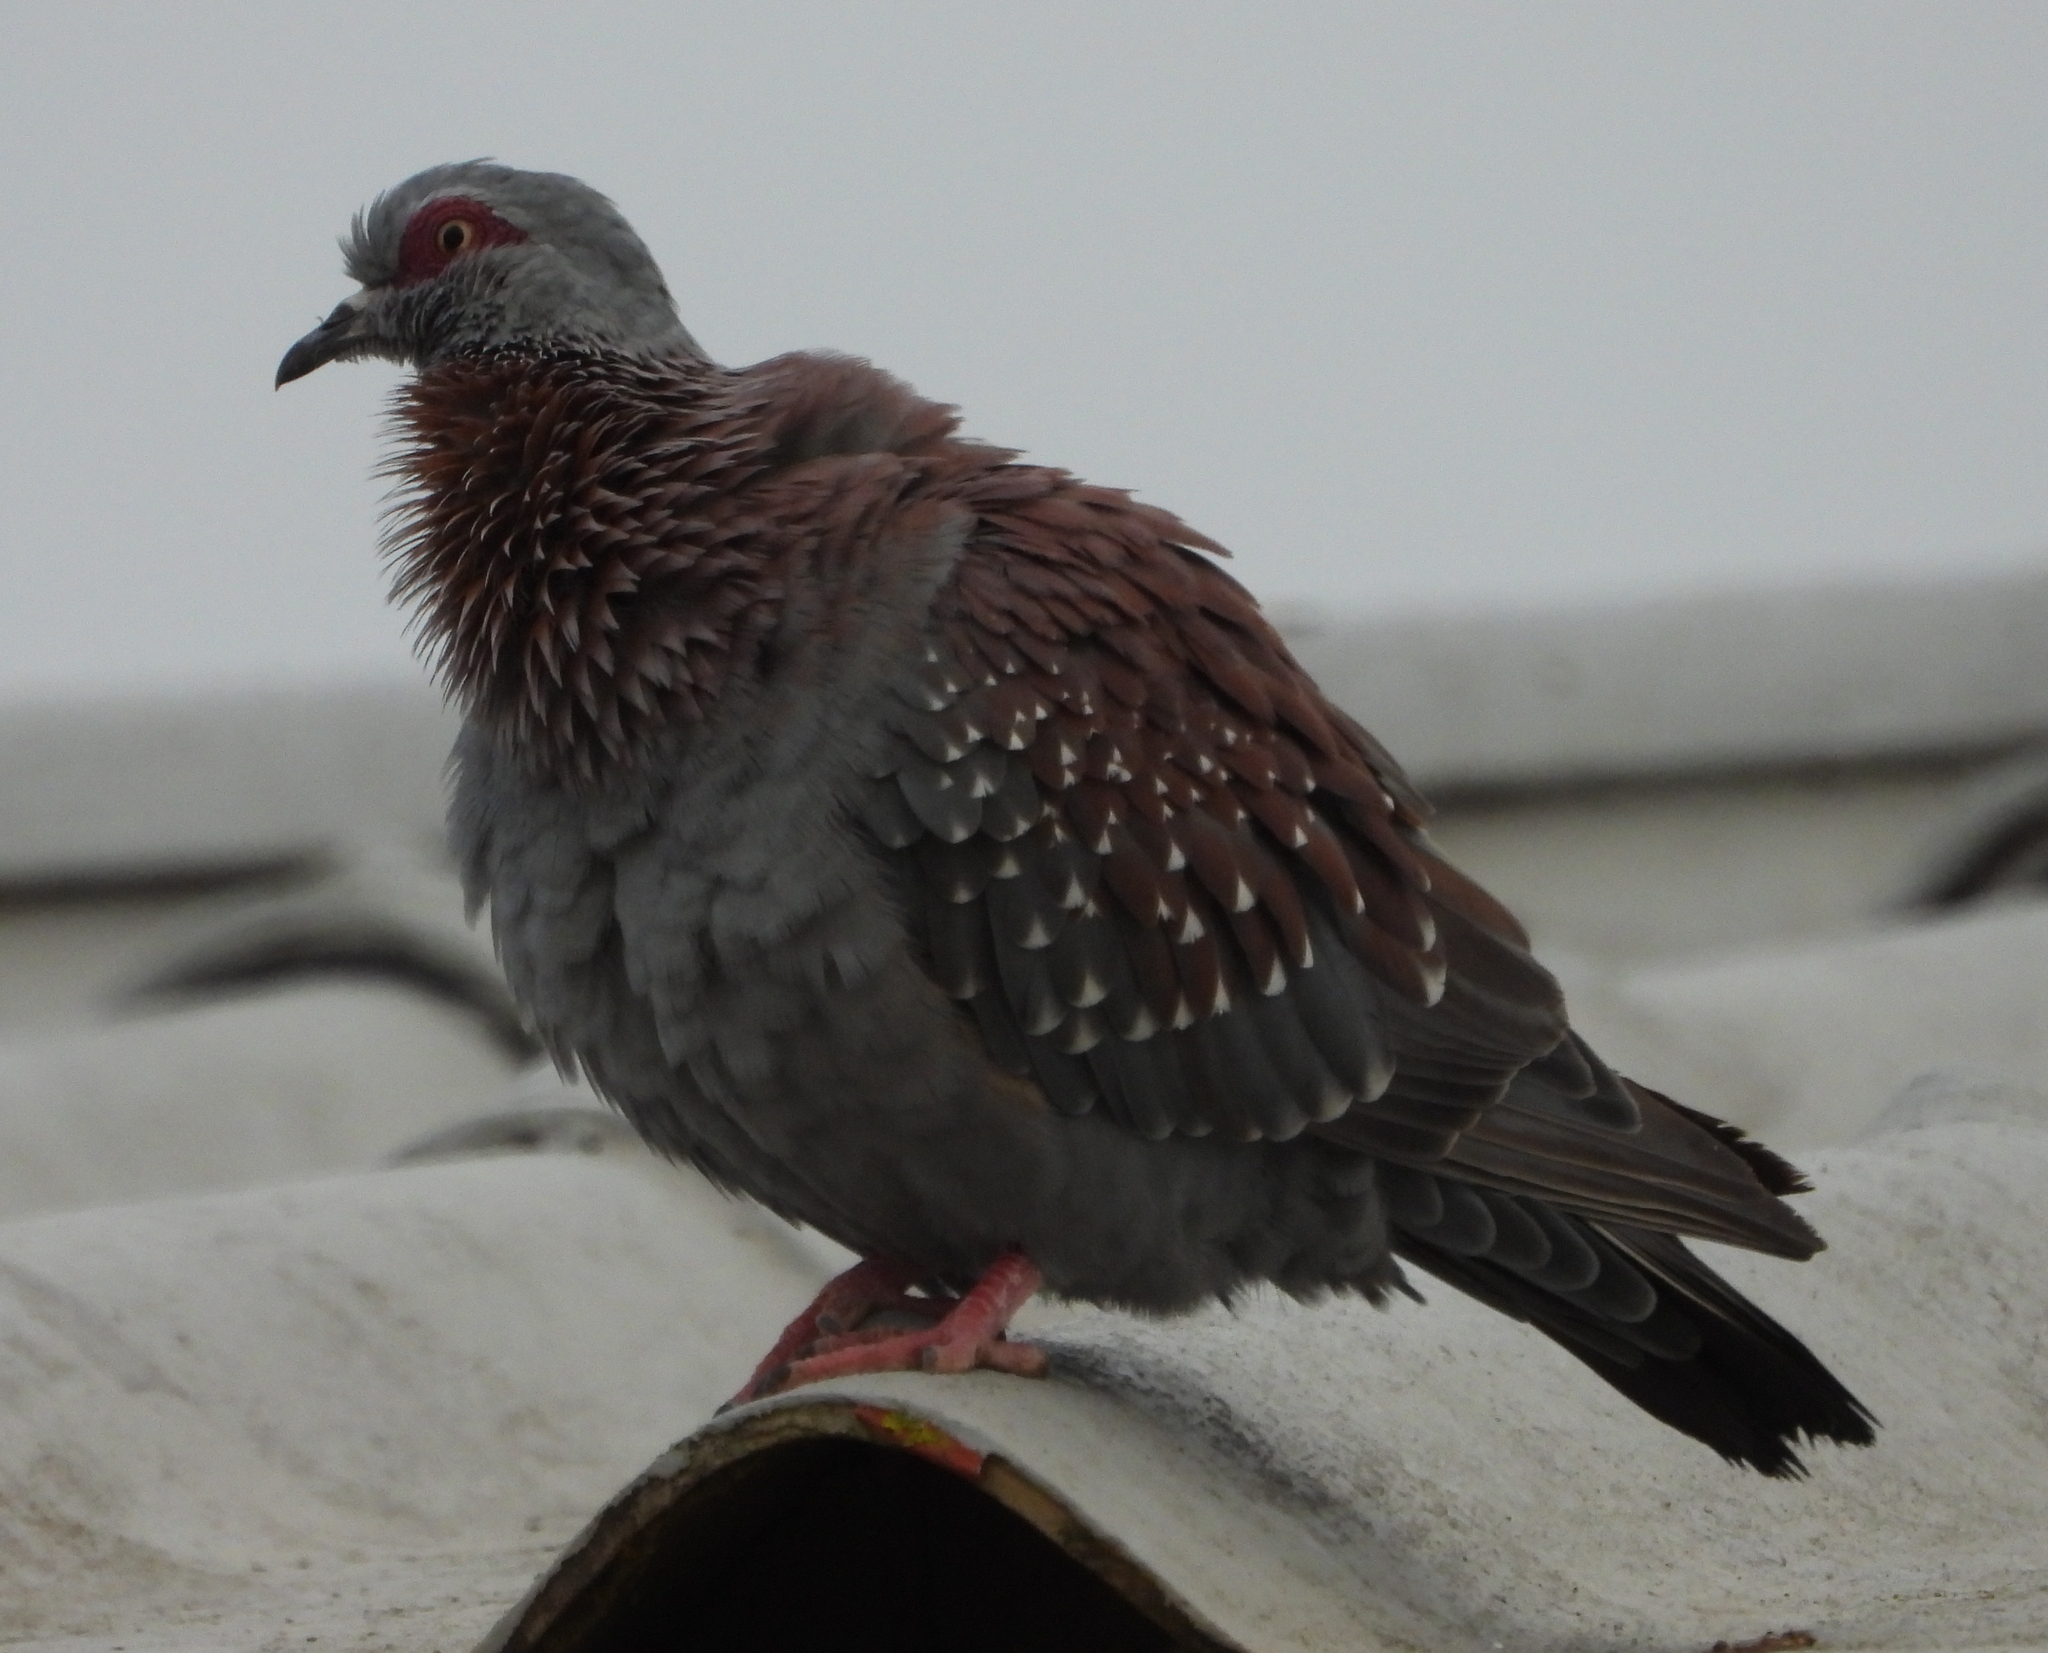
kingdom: Animalia
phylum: Chordata
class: Aves
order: Columbiformes
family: Columbidae
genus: Columba
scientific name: Columba guinea
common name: Speckled pigeon
